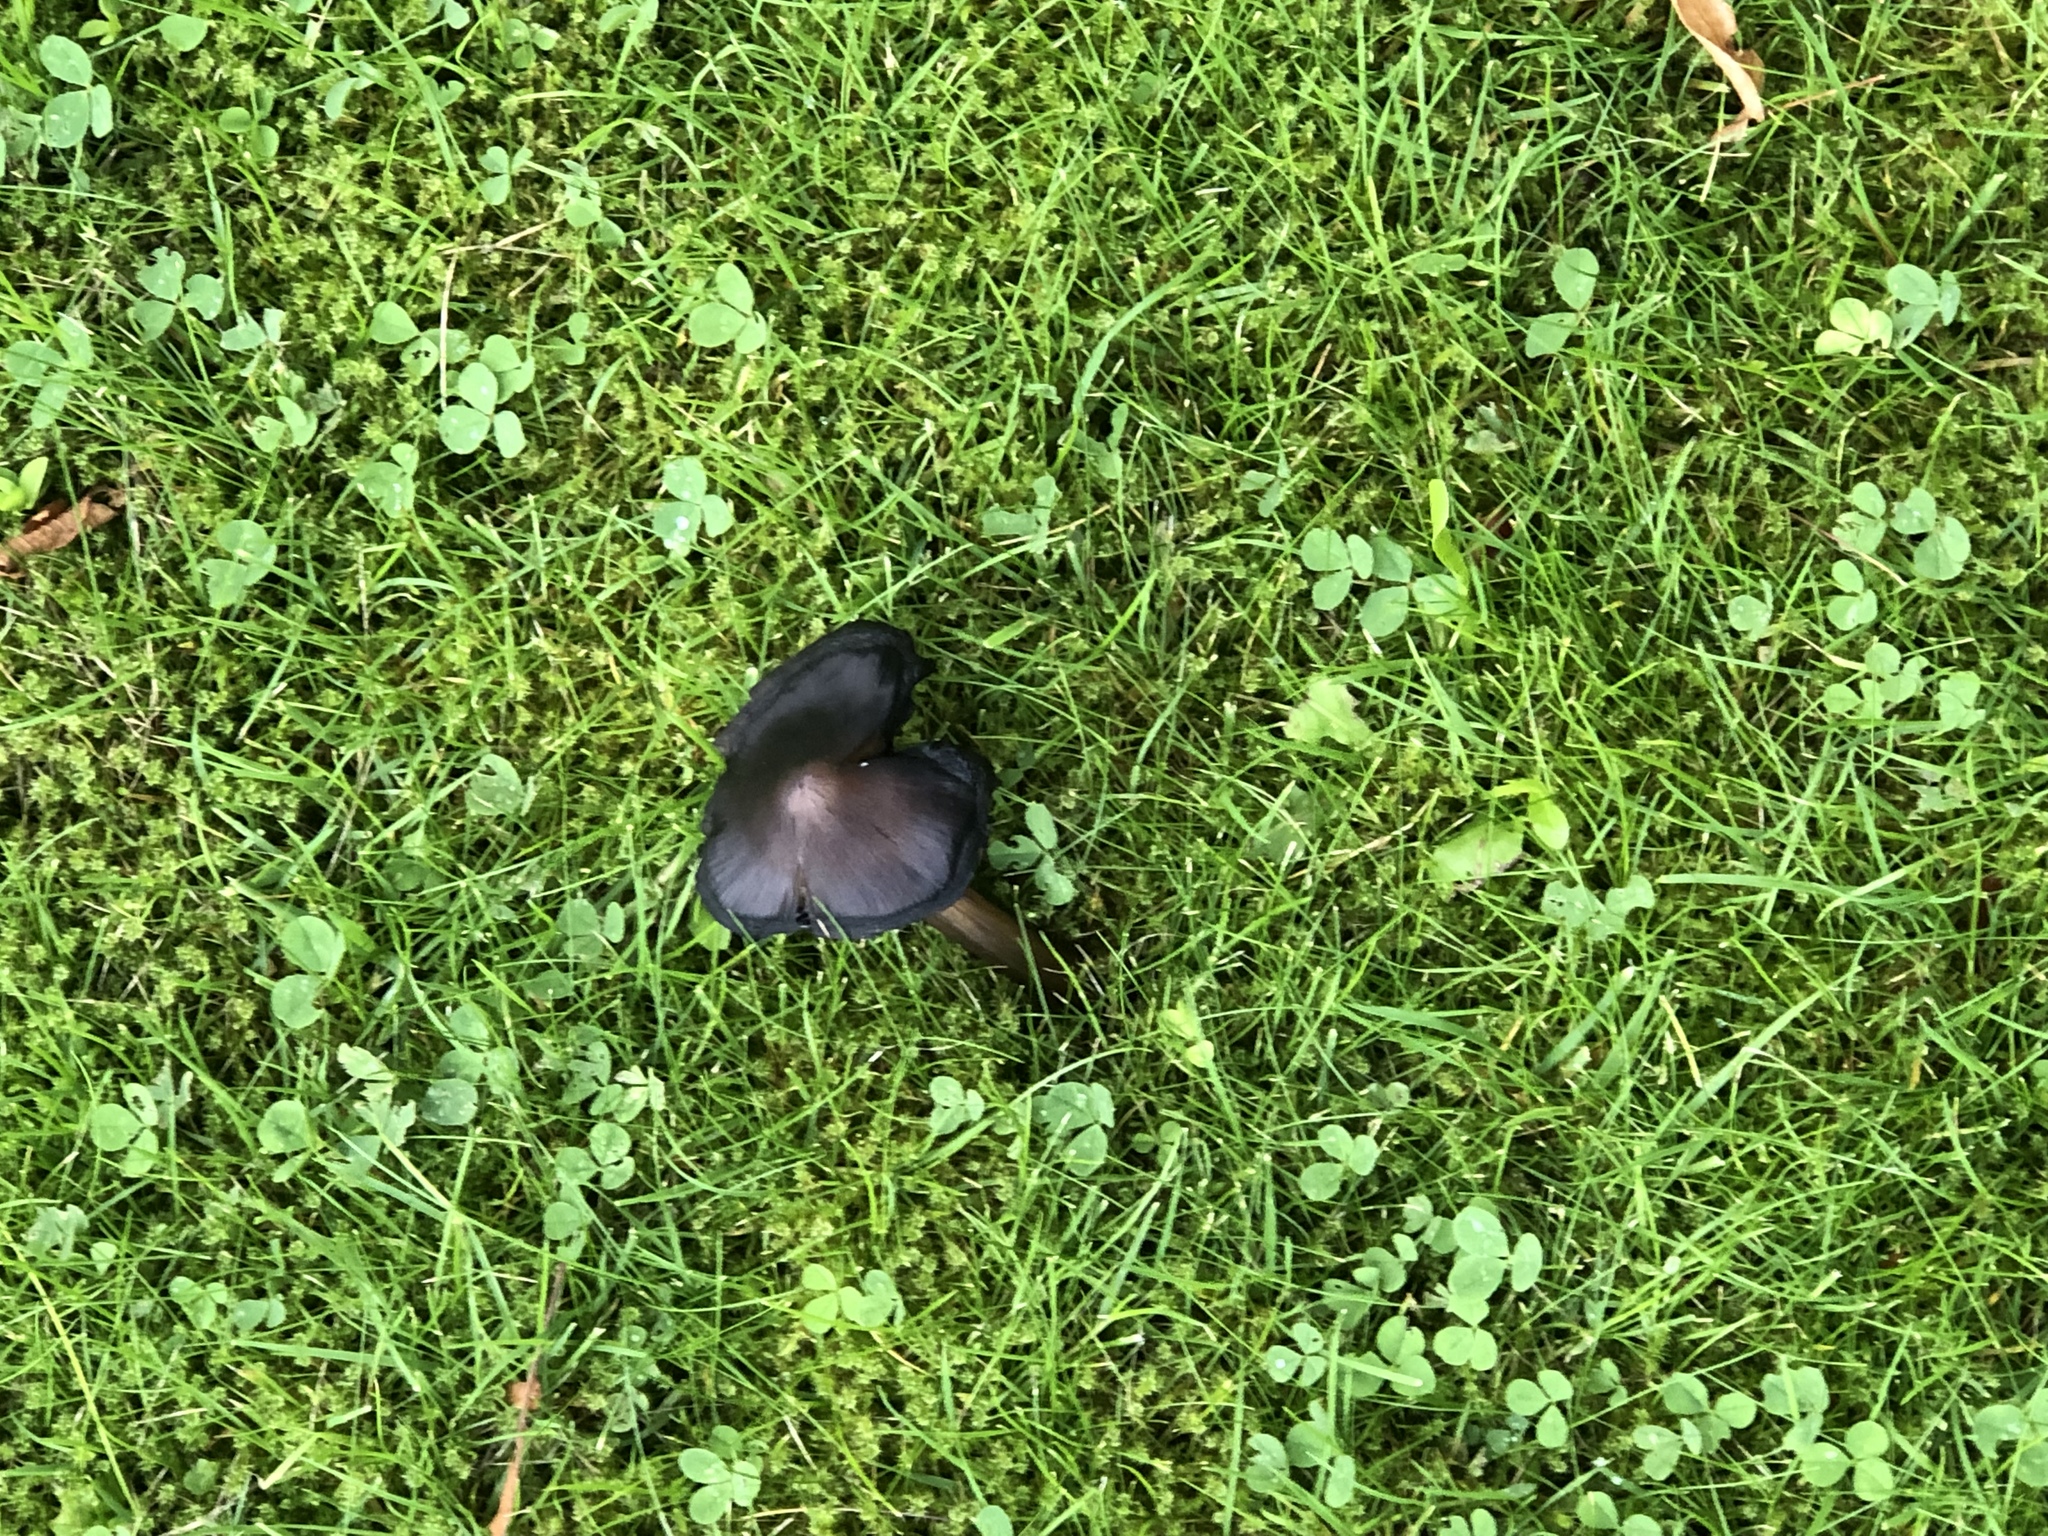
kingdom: Fungi
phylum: Basidiomycota
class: Agaricomycetes
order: Agaricales
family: Hygrophoraceae
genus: Hygrocybe
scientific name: Hygrocybe conica
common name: Blackening wax-cap
